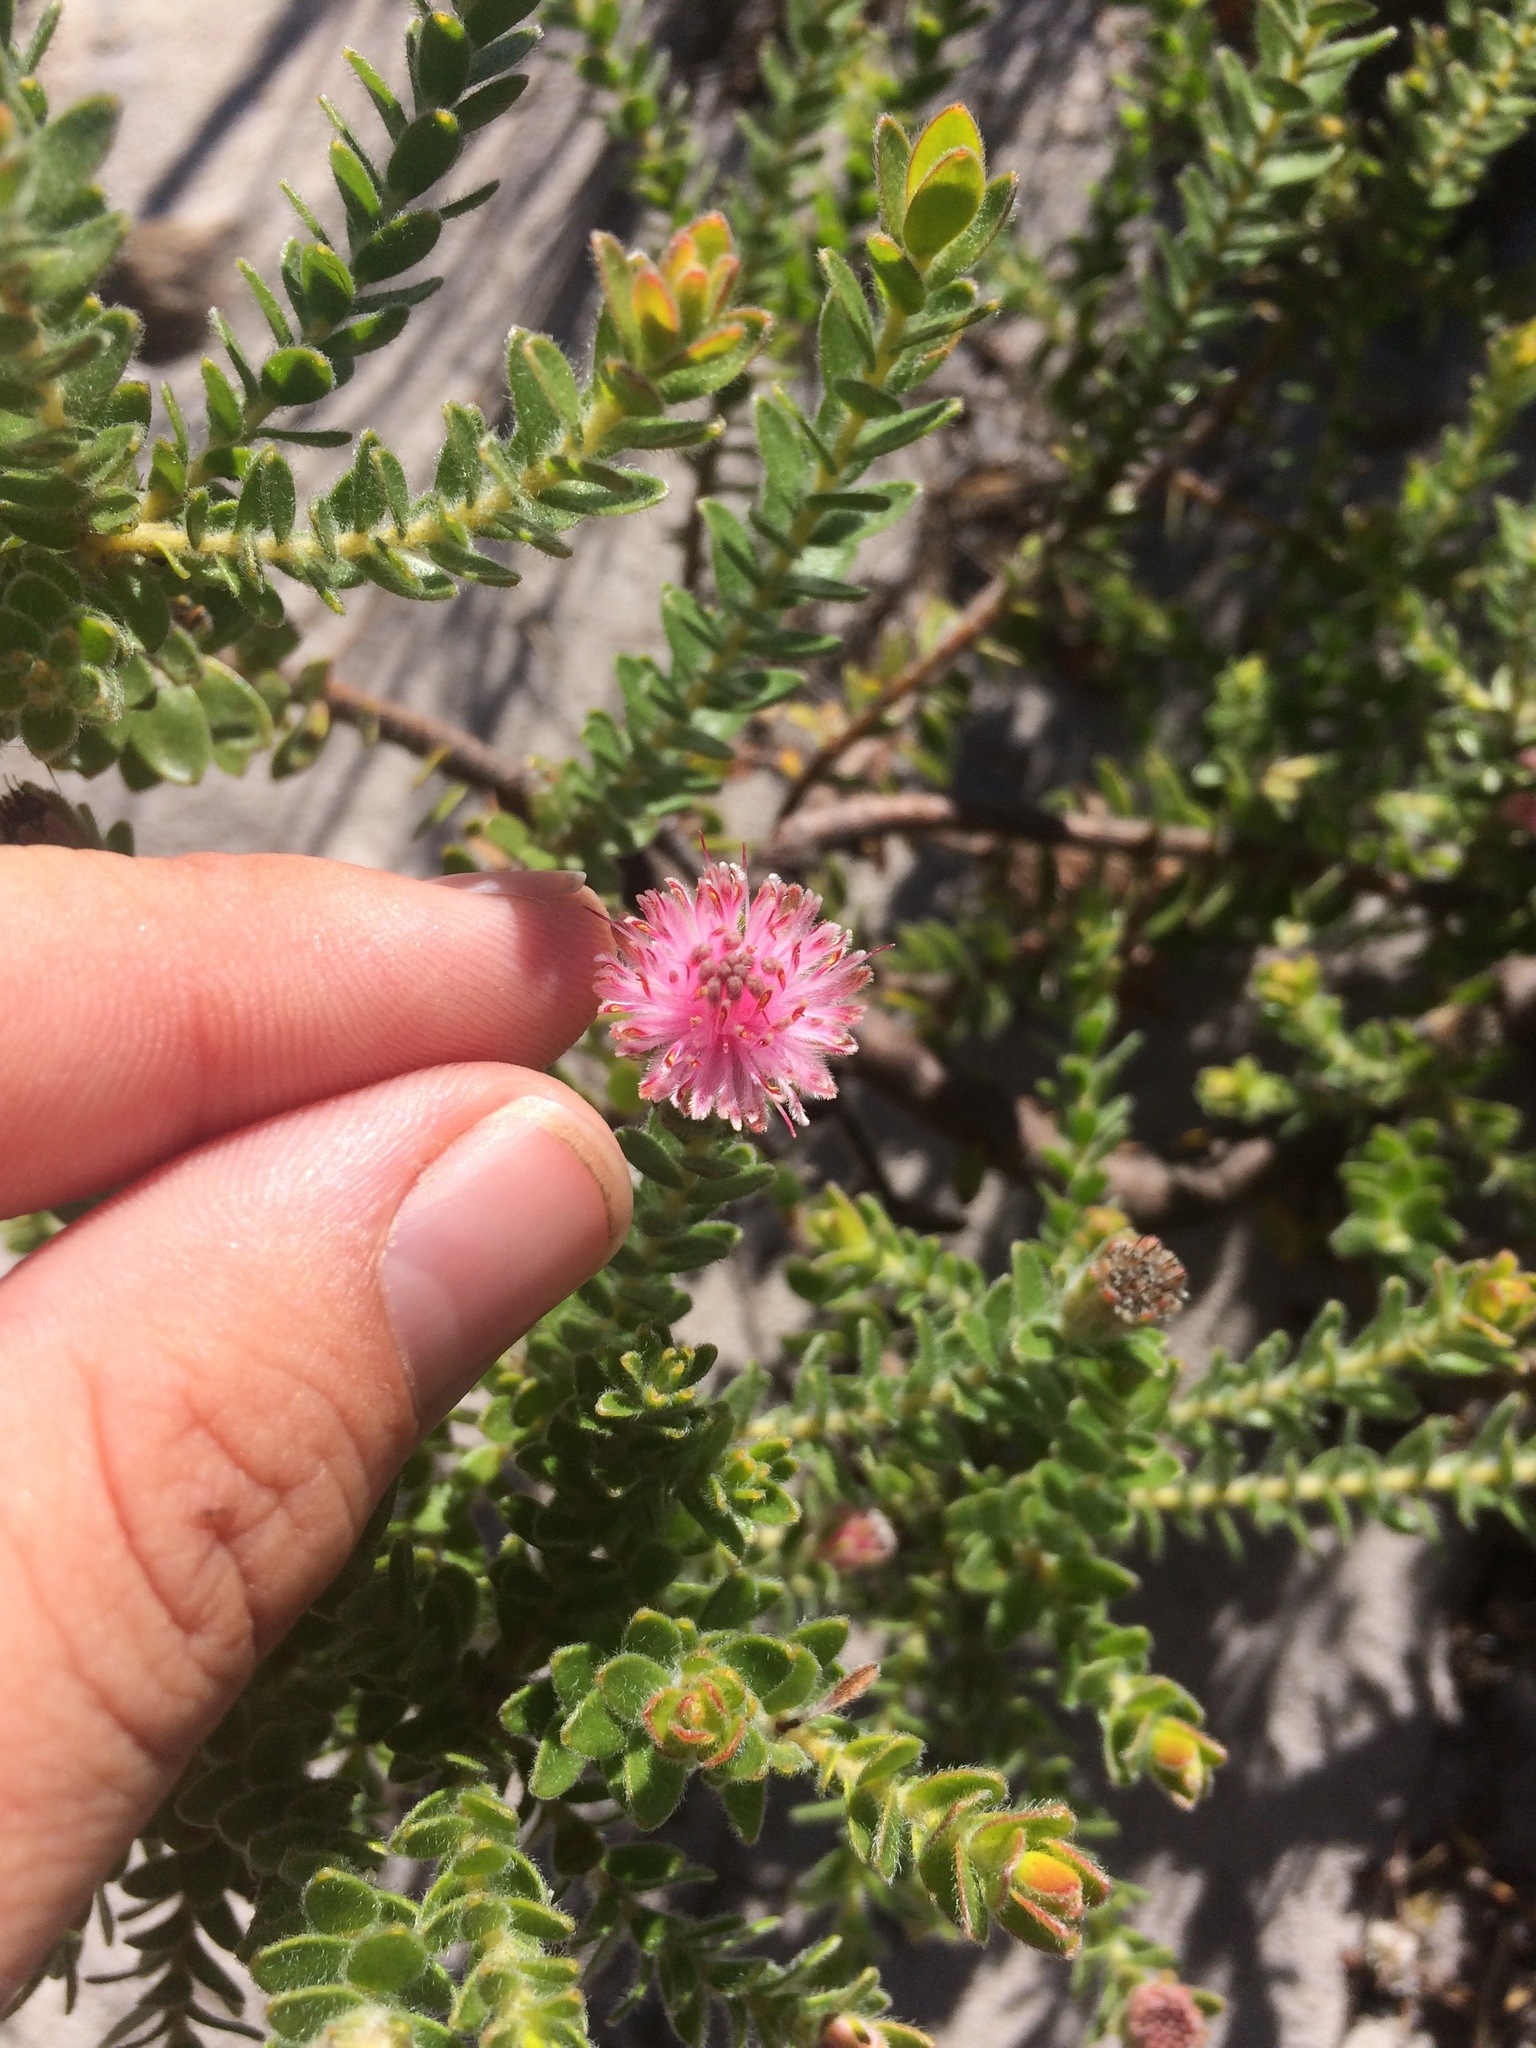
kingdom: Plantae
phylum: Tracheophyta
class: Magnoliopsida
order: Proteales
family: Proteaceae
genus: Diastella
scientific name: Diastella divaricata
